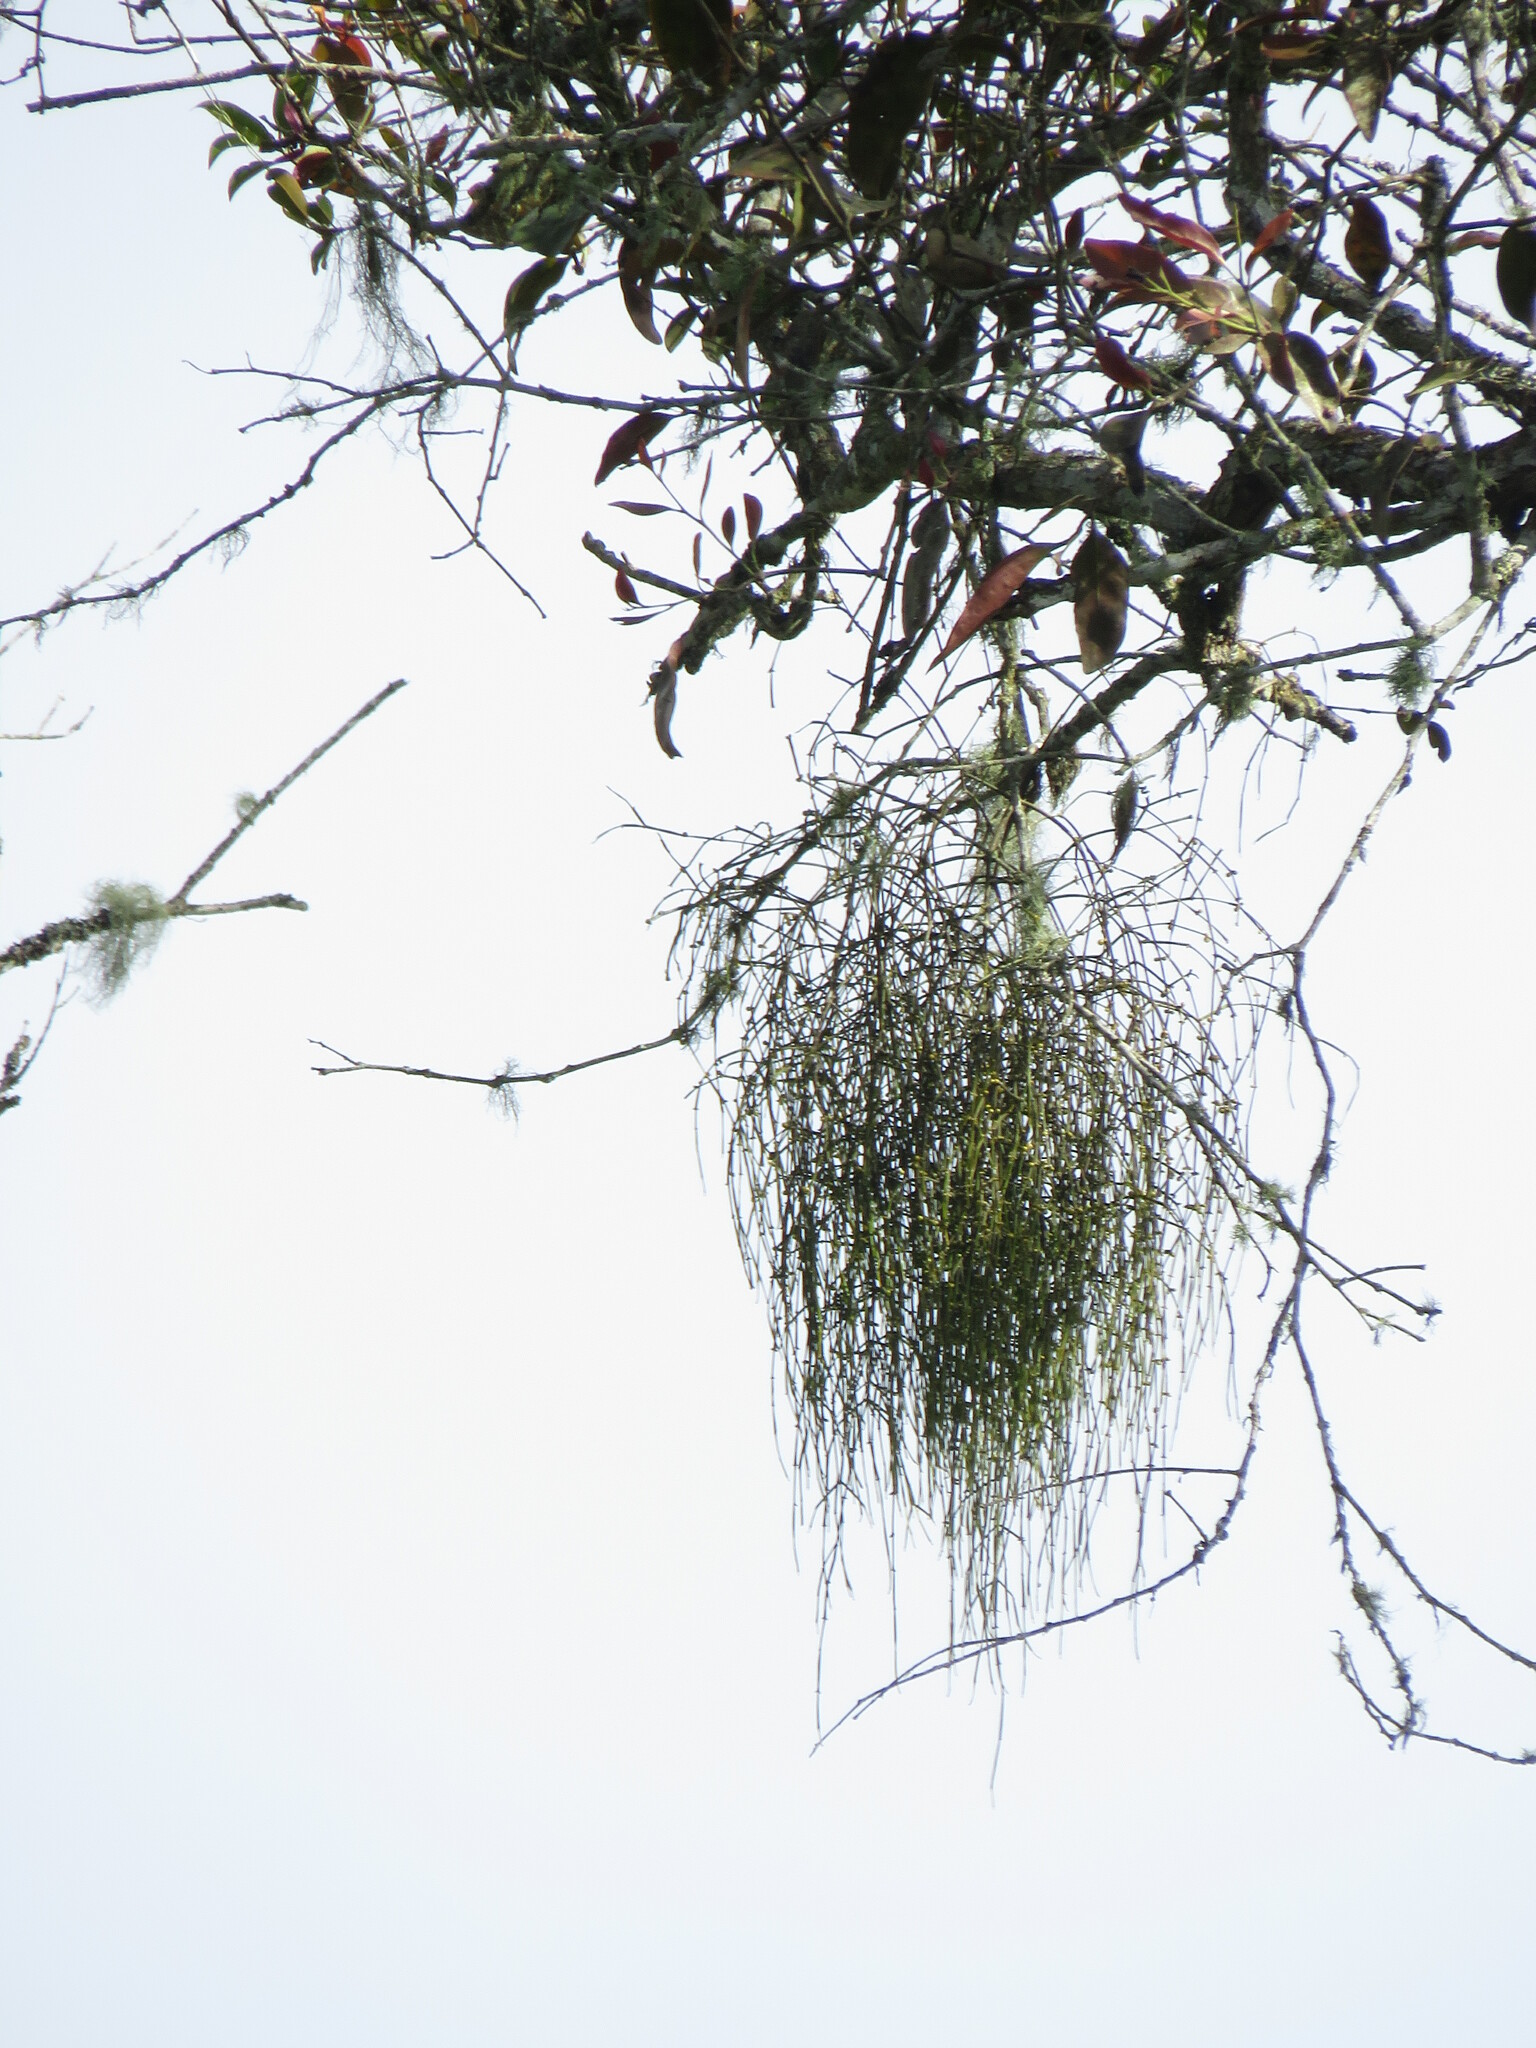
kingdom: Plantae
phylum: Tracheophyta
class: Magnoliopsida
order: Santalales
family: Viscaceae
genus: Viscum
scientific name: Viscum articulatum
